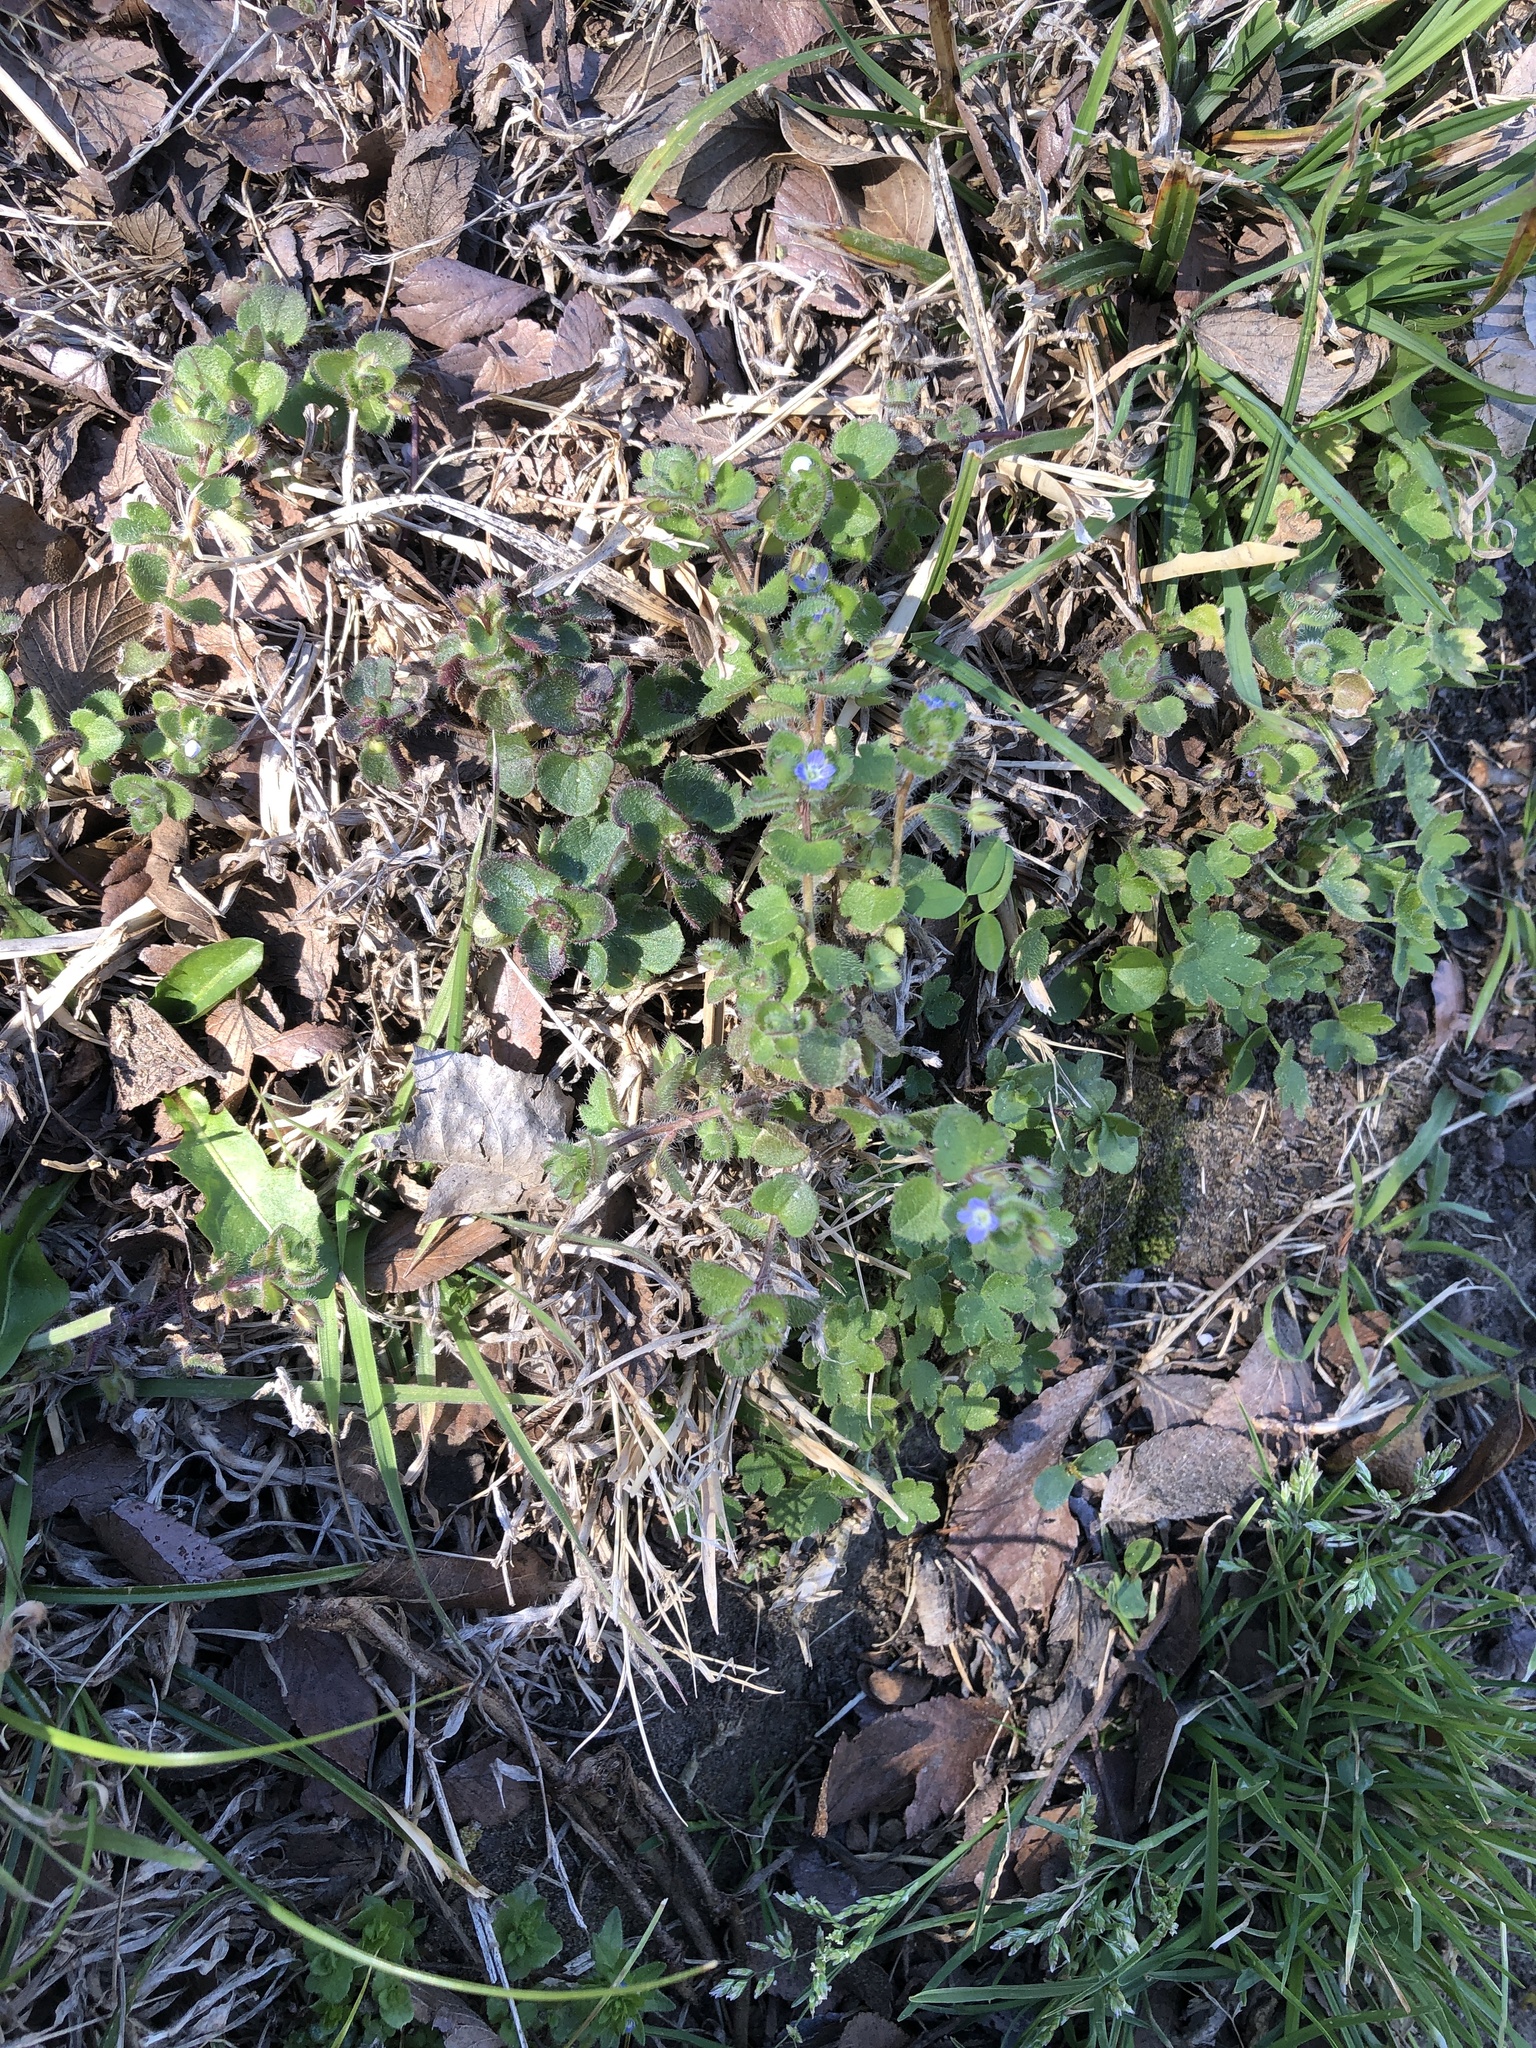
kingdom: Plantae
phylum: Tracheophyta
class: Magnoliopsida
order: Lamiales
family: Plantaginaceae
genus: Veronica
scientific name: Veronica hederifolia
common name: Ivy-leaved speedwell
